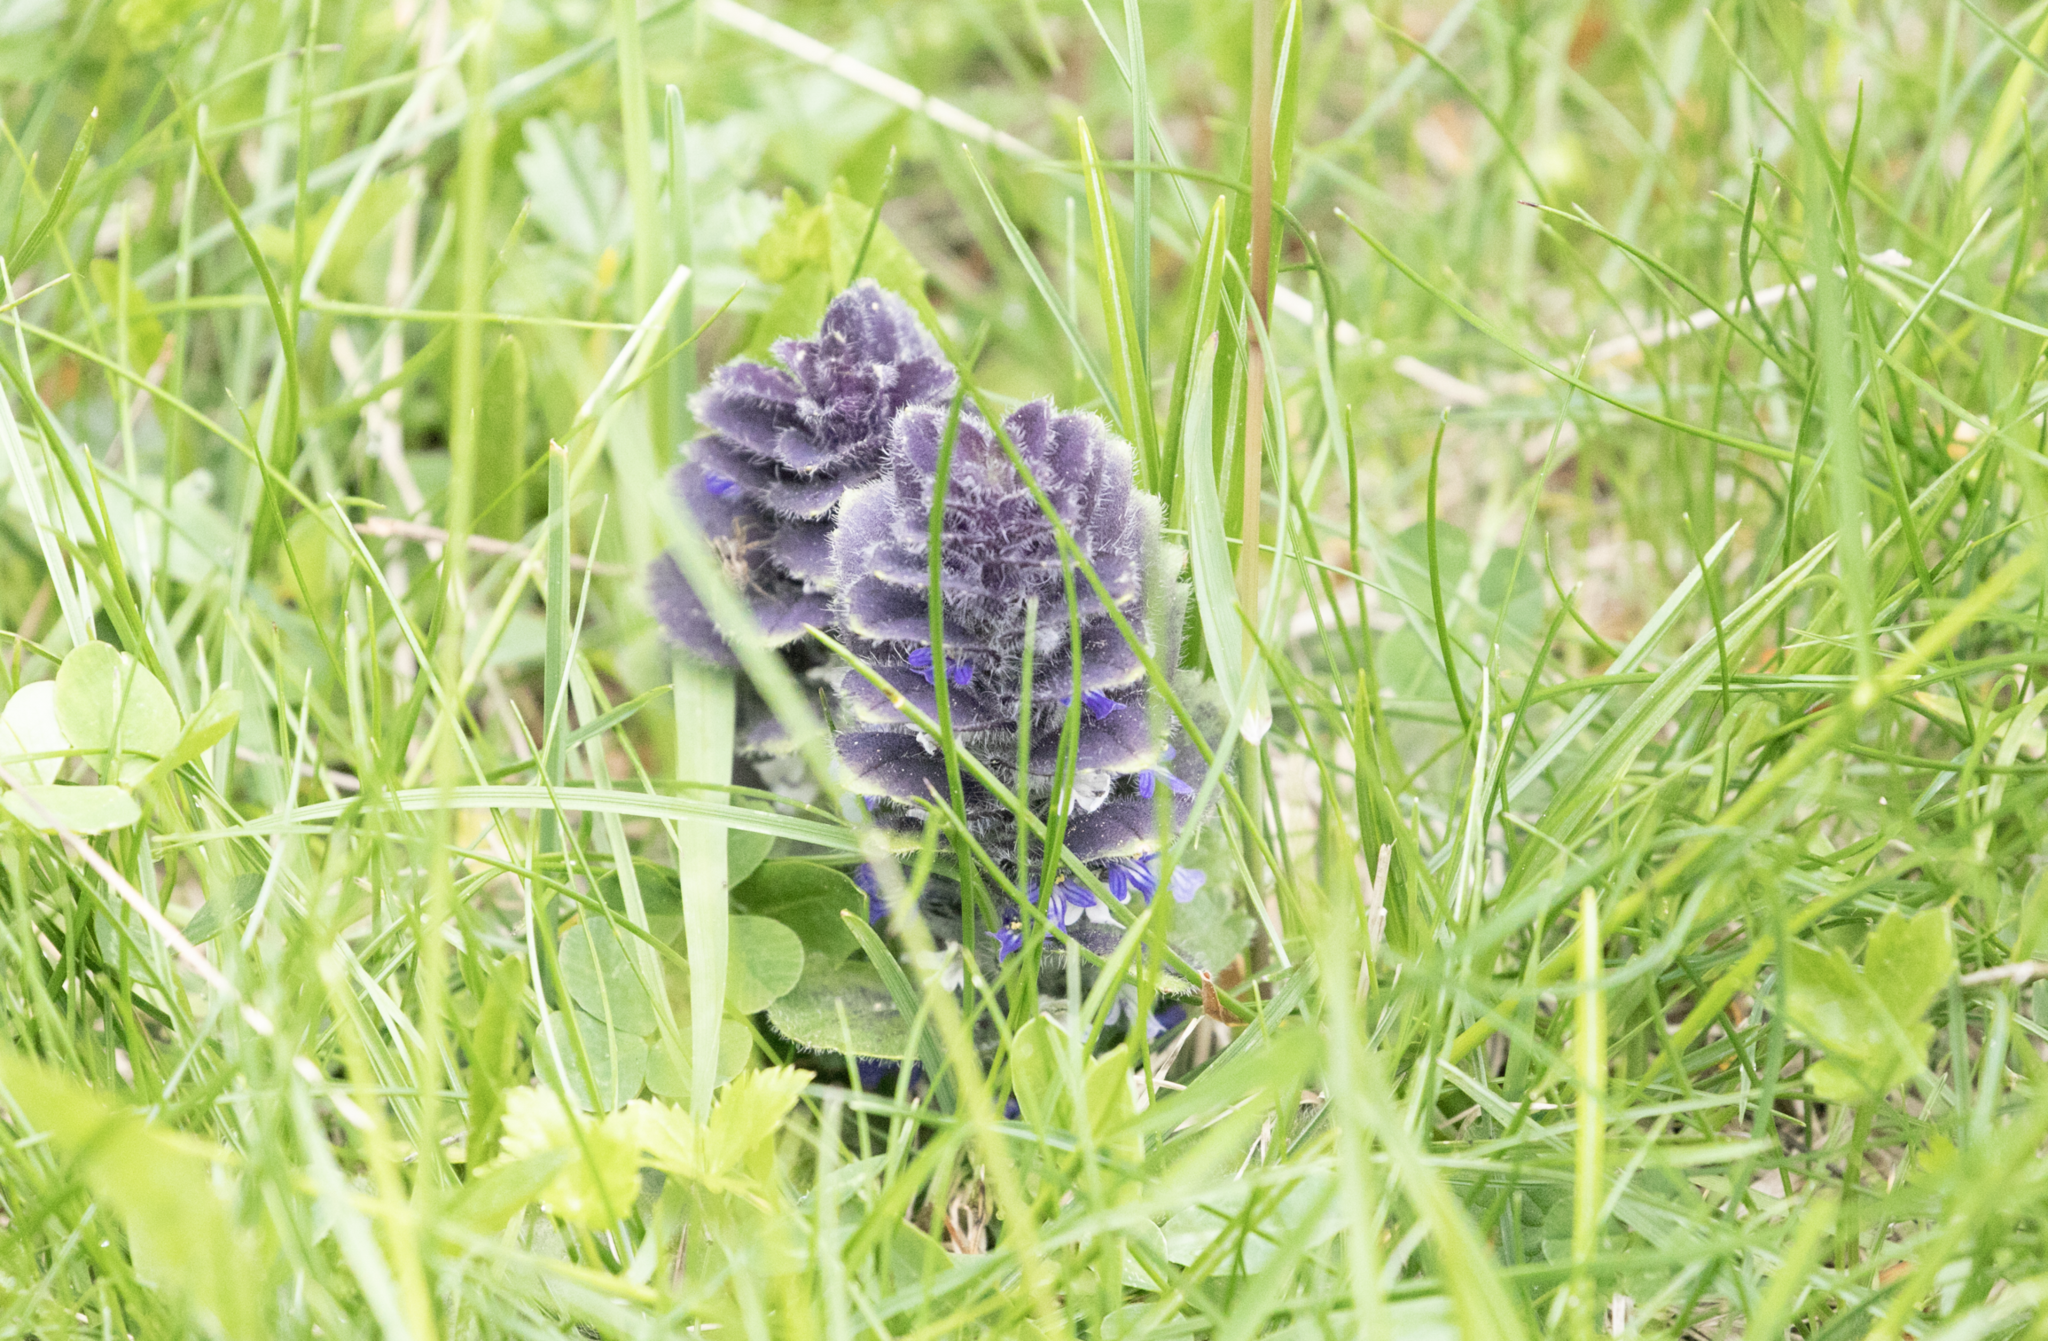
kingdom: Plantae
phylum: Tracheophyta
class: Magnoliopsida
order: Lamiales
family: Lamiaceae
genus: Ajuga
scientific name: Ajuga pyramidalis
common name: Pyramid bugle
